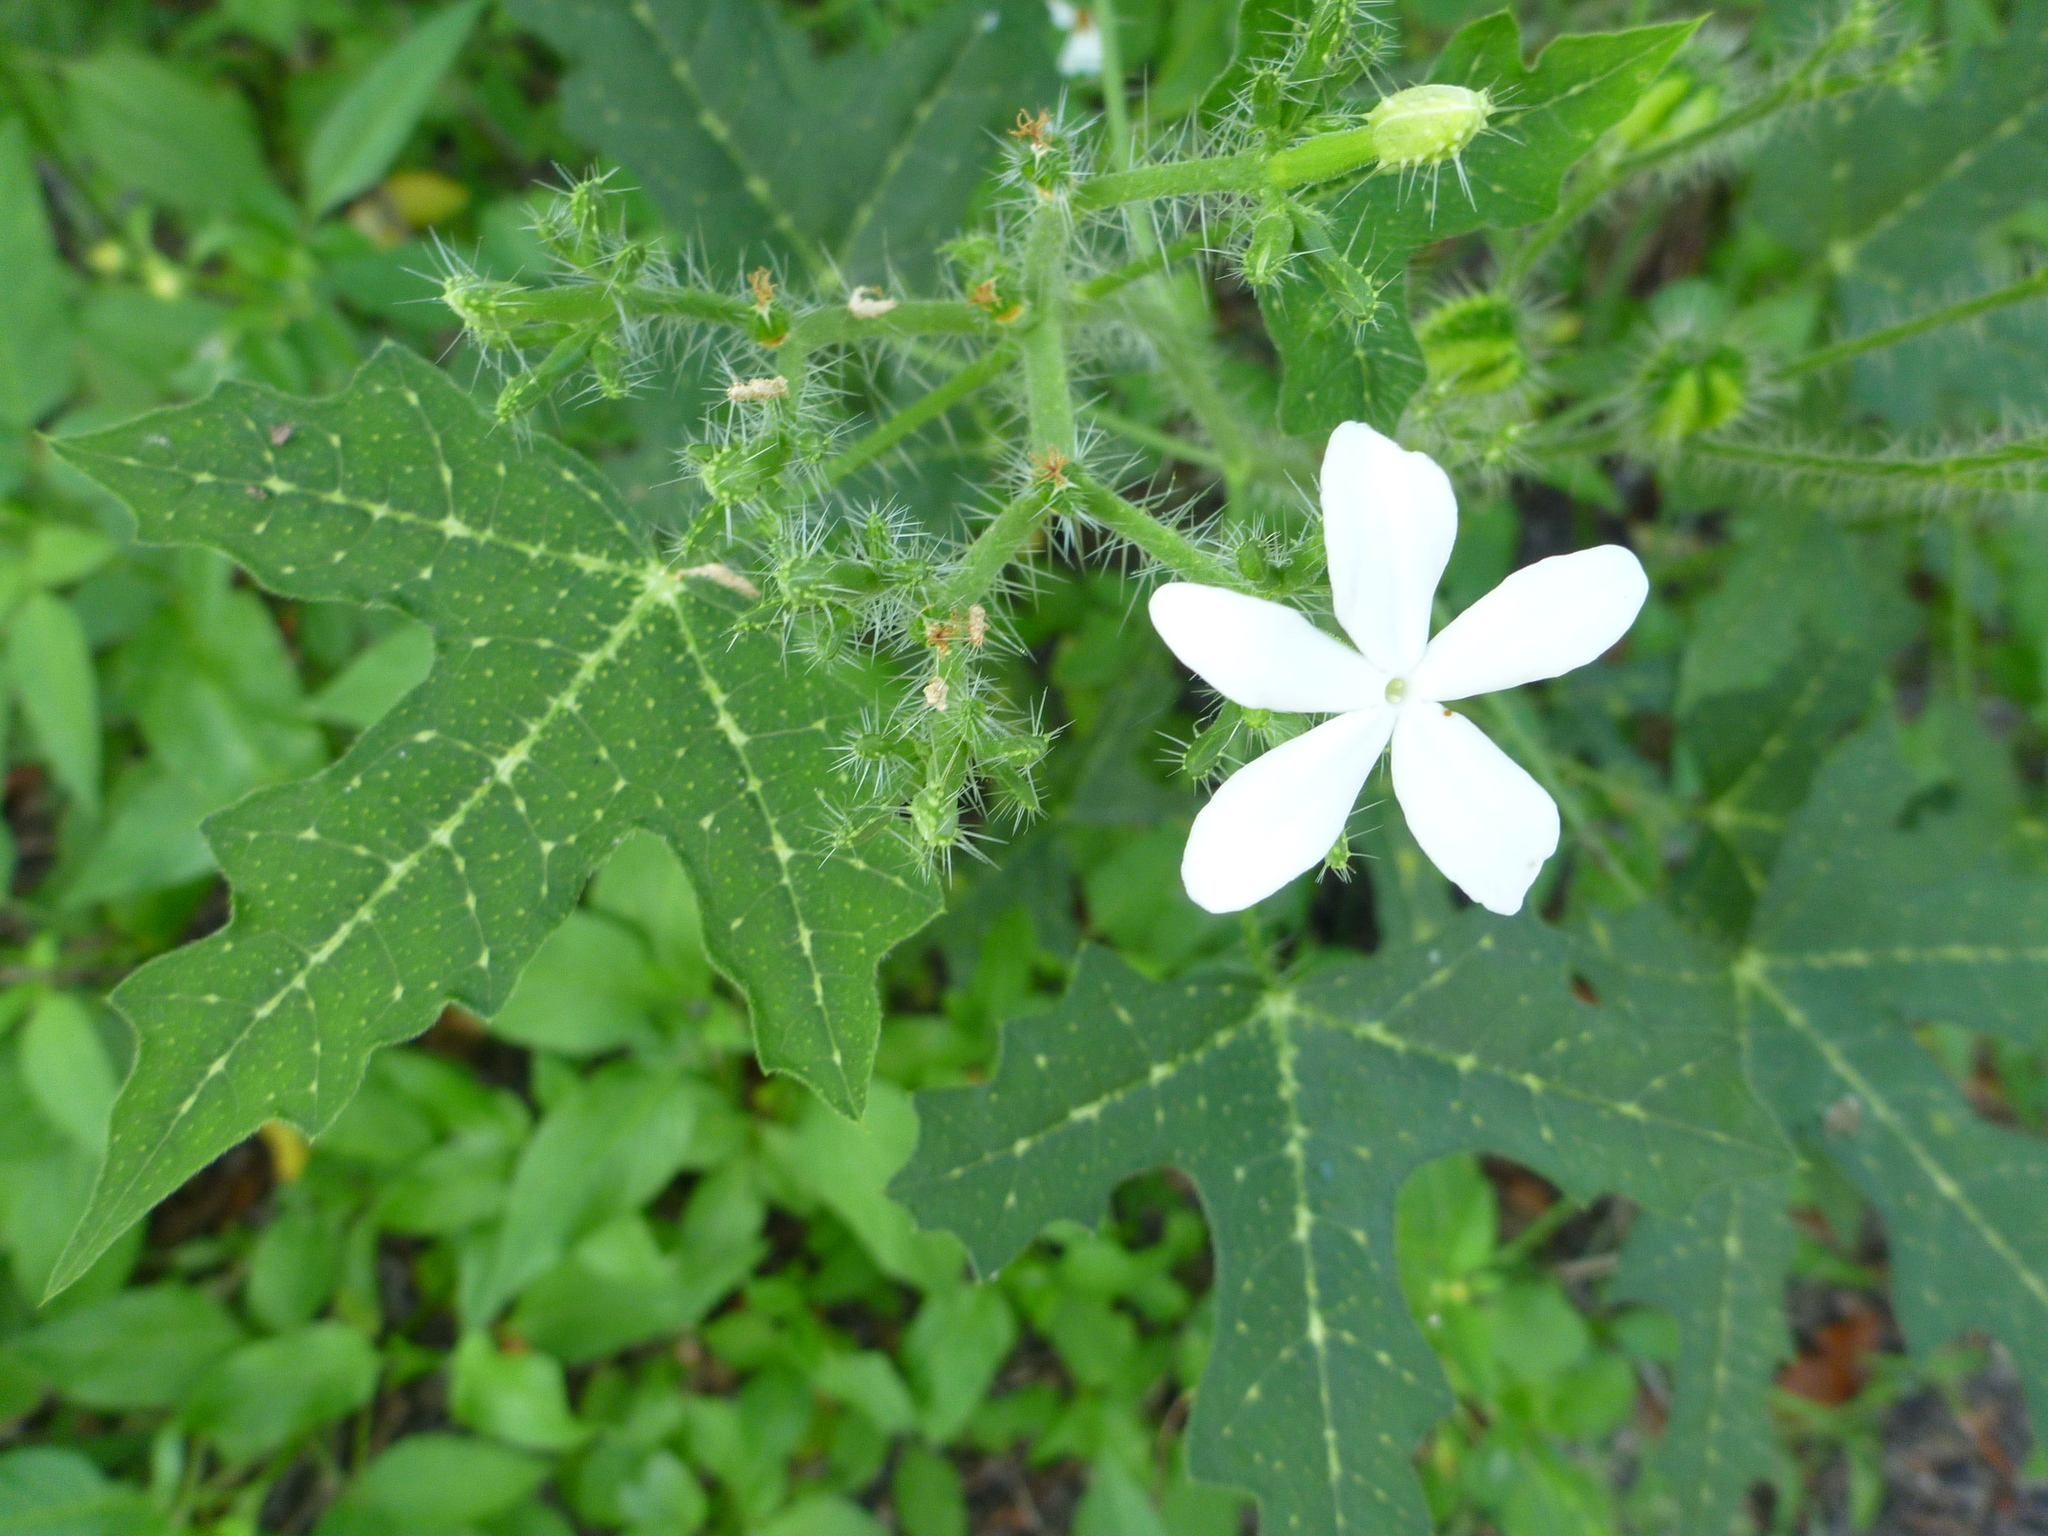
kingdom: Plantae
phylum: Tracheophyta
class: Magnoliopsida
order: Malpighiales
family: Euphorbiaceae
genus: Cnidoscolus
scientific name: Cnidoscolus stimulosus
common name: Bull-nettle
